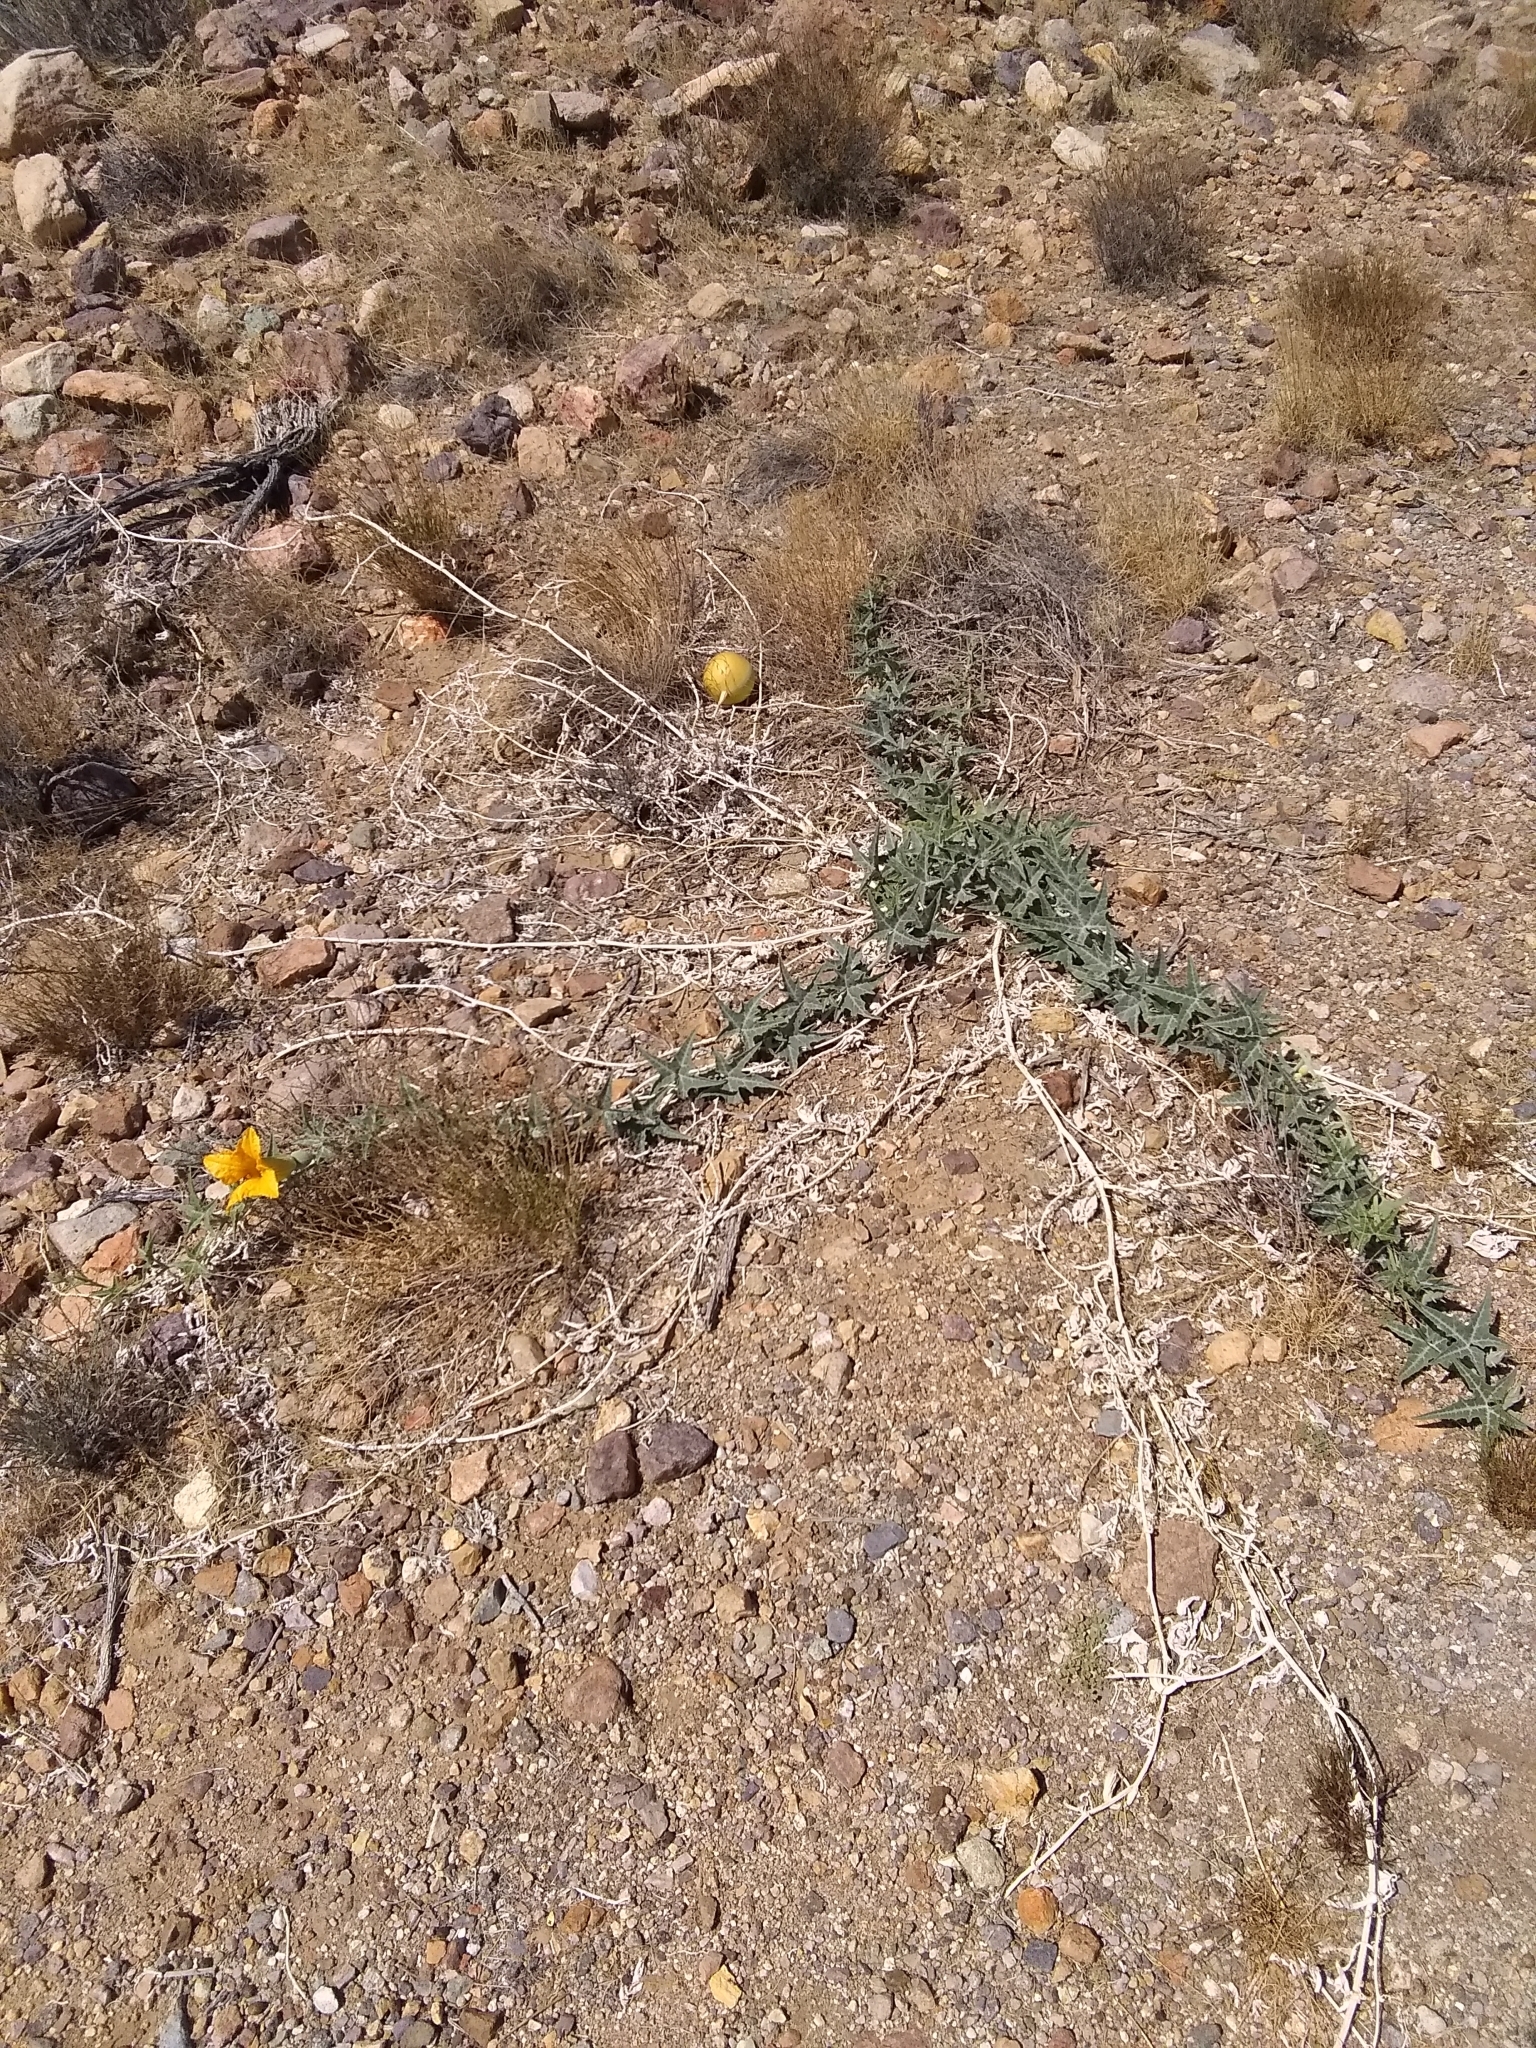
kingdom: Plantae
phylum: Tracheophyta
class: Magnoliopsida
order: Cucurbitales
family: Cucurbitaceae
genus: Cucurbita
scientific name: Cucurbita palmata
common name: Coyote-melon
